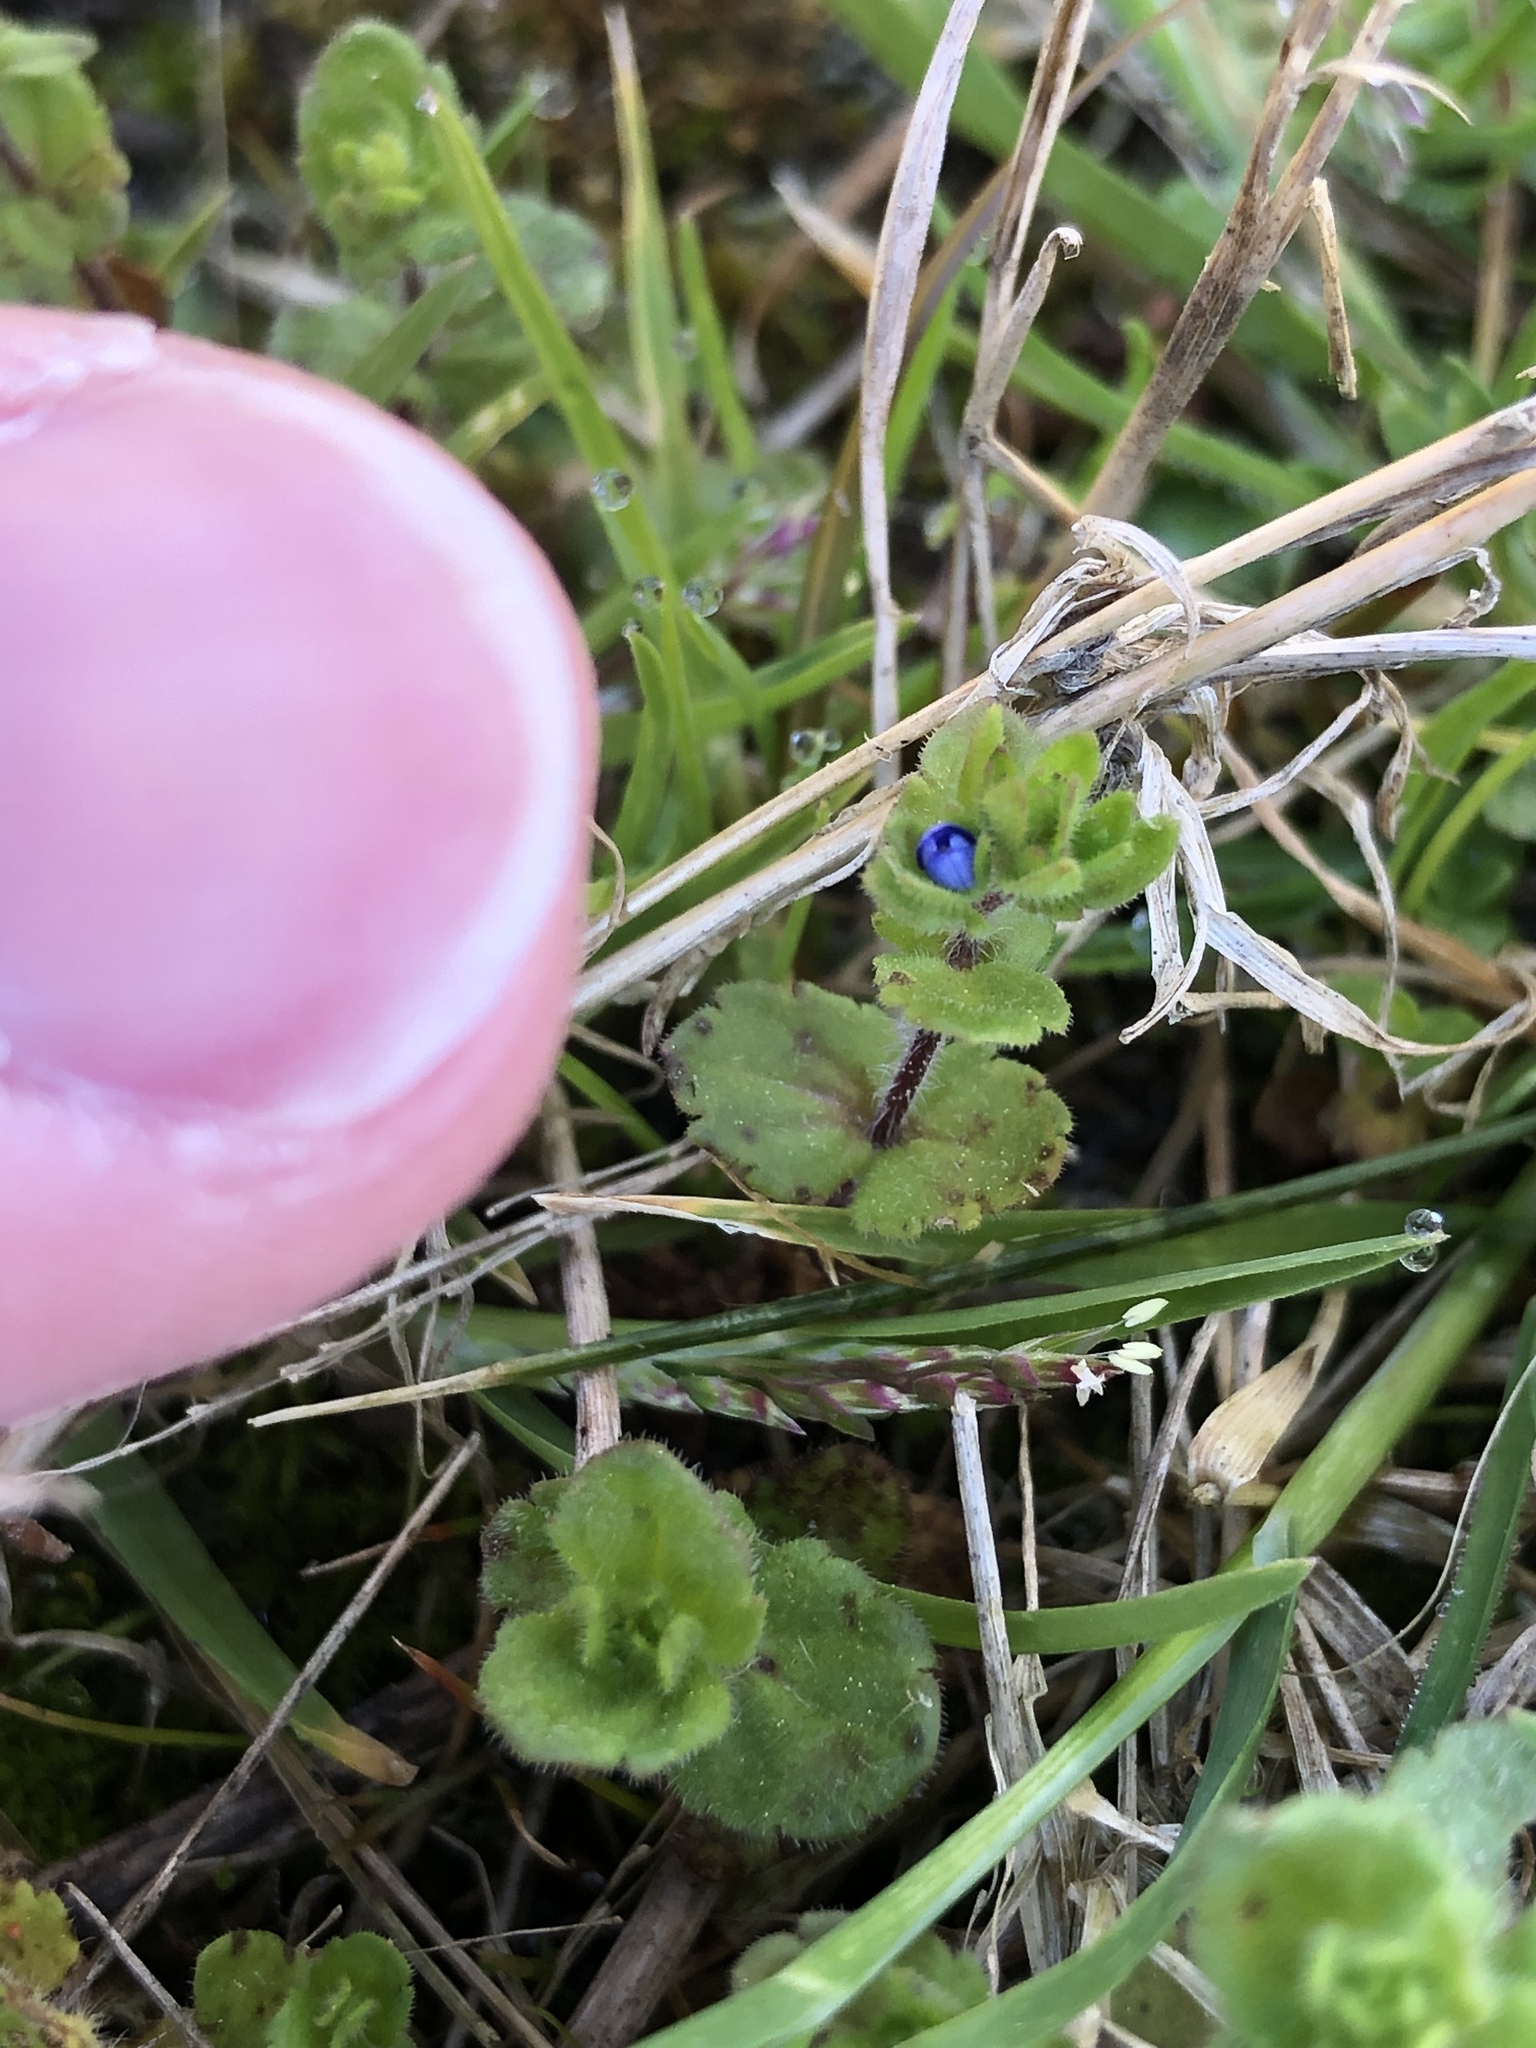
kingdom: Plantae
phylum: Tracheophyta
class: Magnoliopsida
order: Lamiales
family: Plantaginaceae
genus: Veronica
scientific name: Veronica arvensis
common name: Corn speedwell
